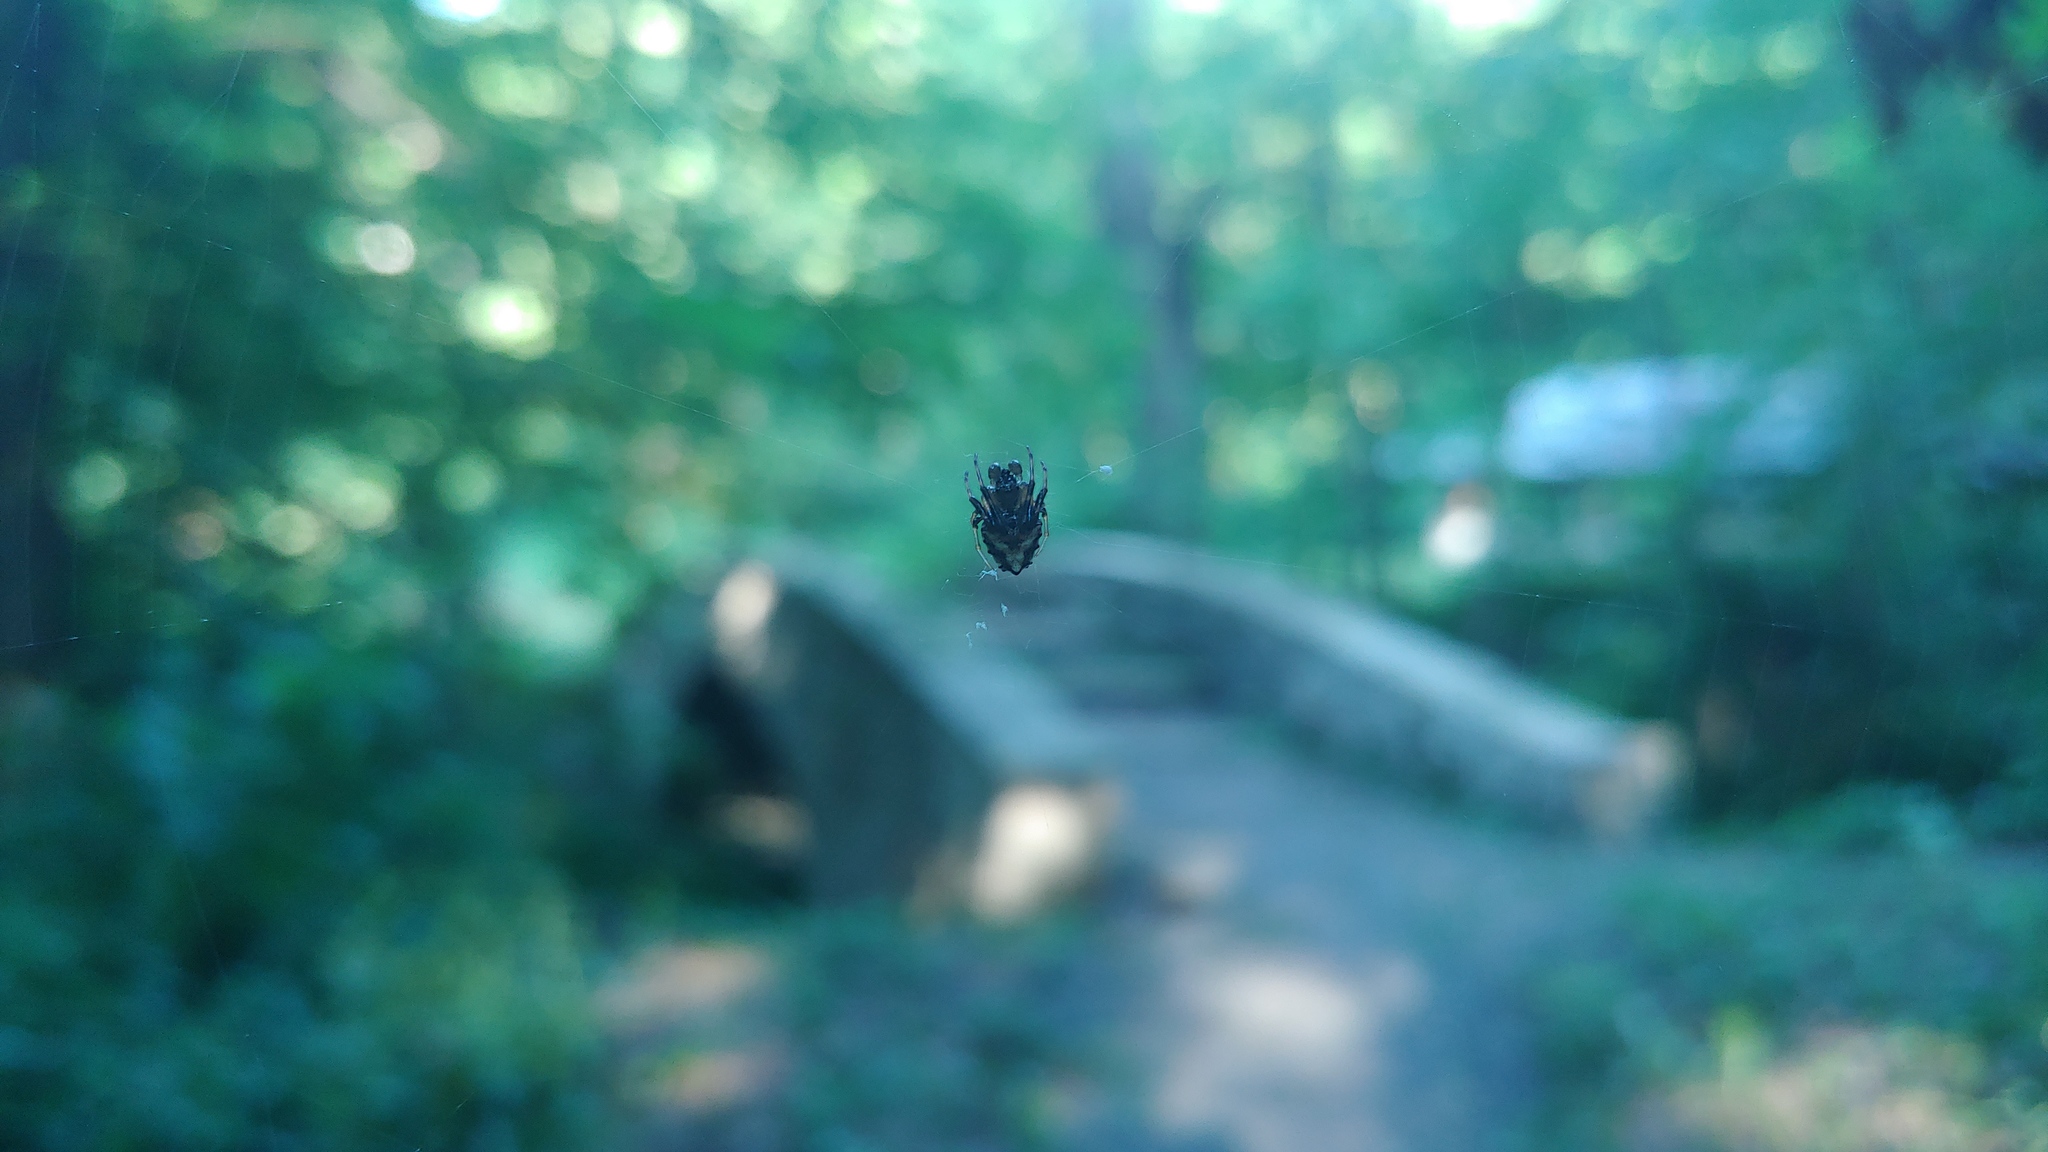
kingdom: Animalia
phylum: Arthropoda
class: Arachnida
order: Araneae
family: Araneidae
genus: Verrucosa
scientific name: Verrucosa arenata
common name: Orb weavers
